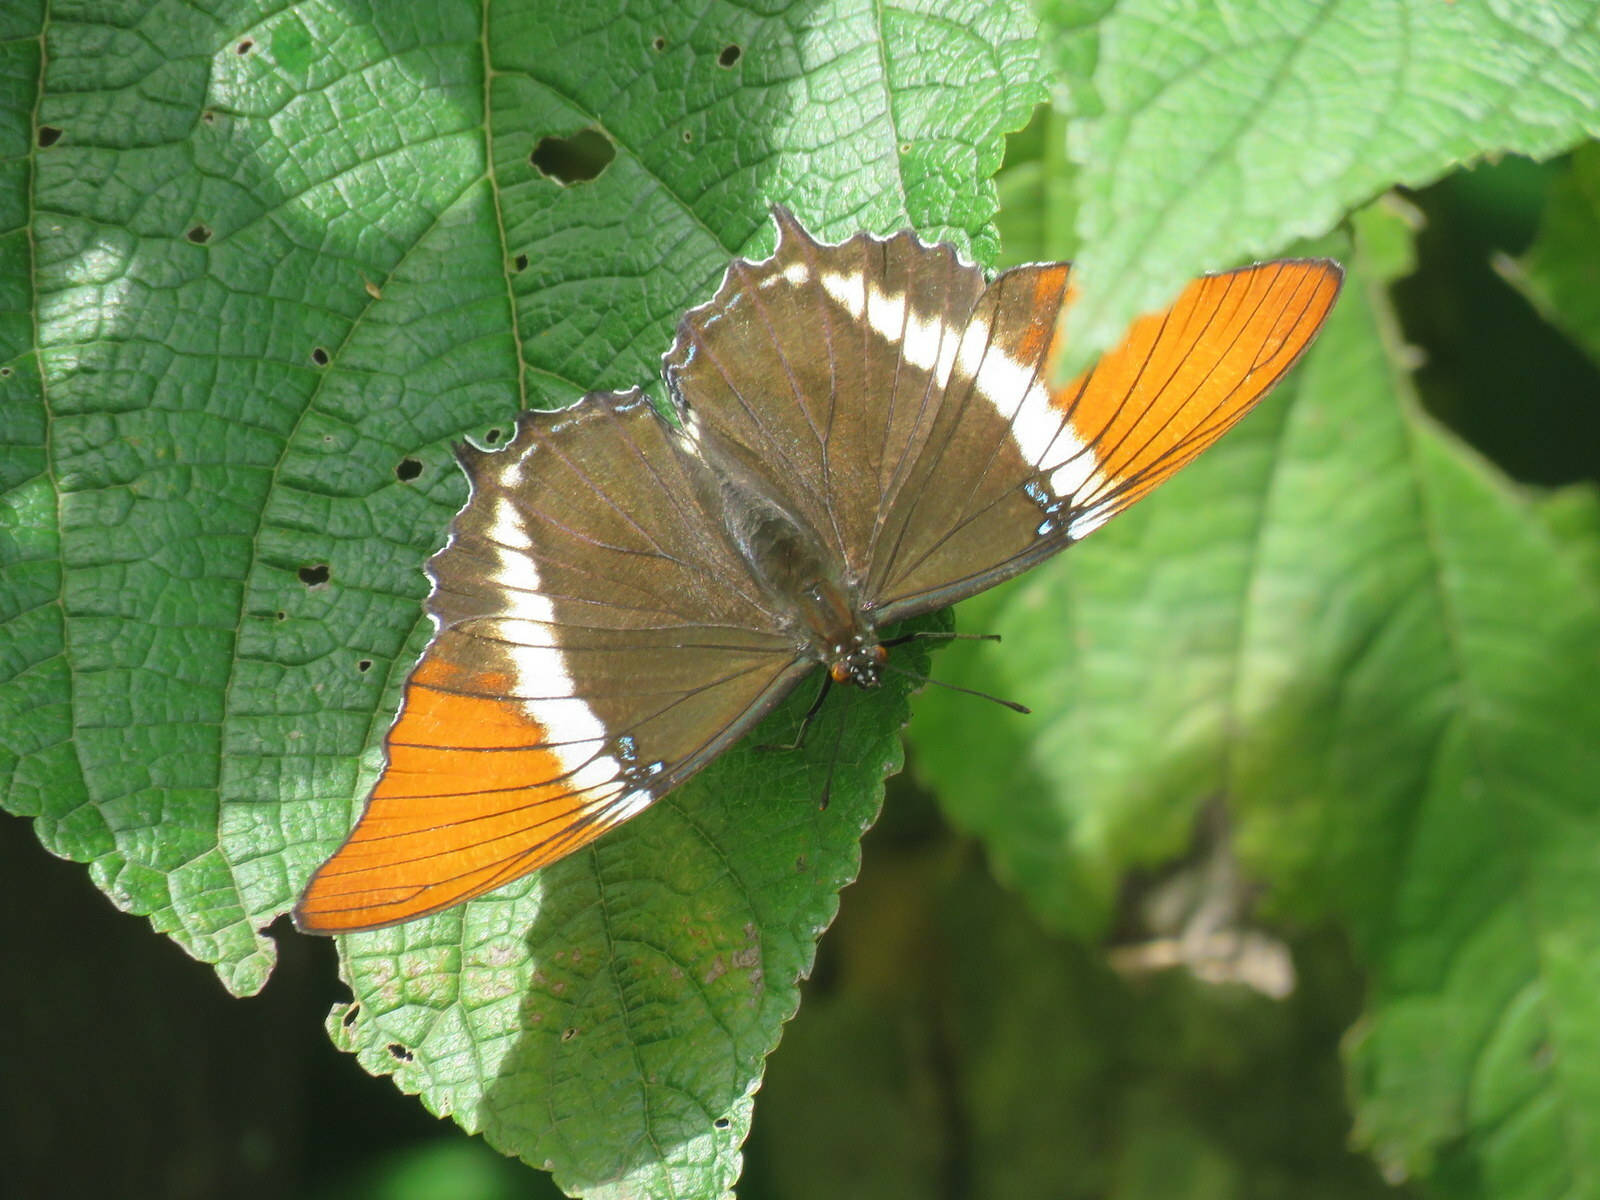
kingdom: Animalia
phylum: Arthropoda
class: Insecta
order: Lepidoptera
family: Nymphalidae
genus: Siproeta
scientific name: Siproeta epaphus
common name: Rusty-tipped page
